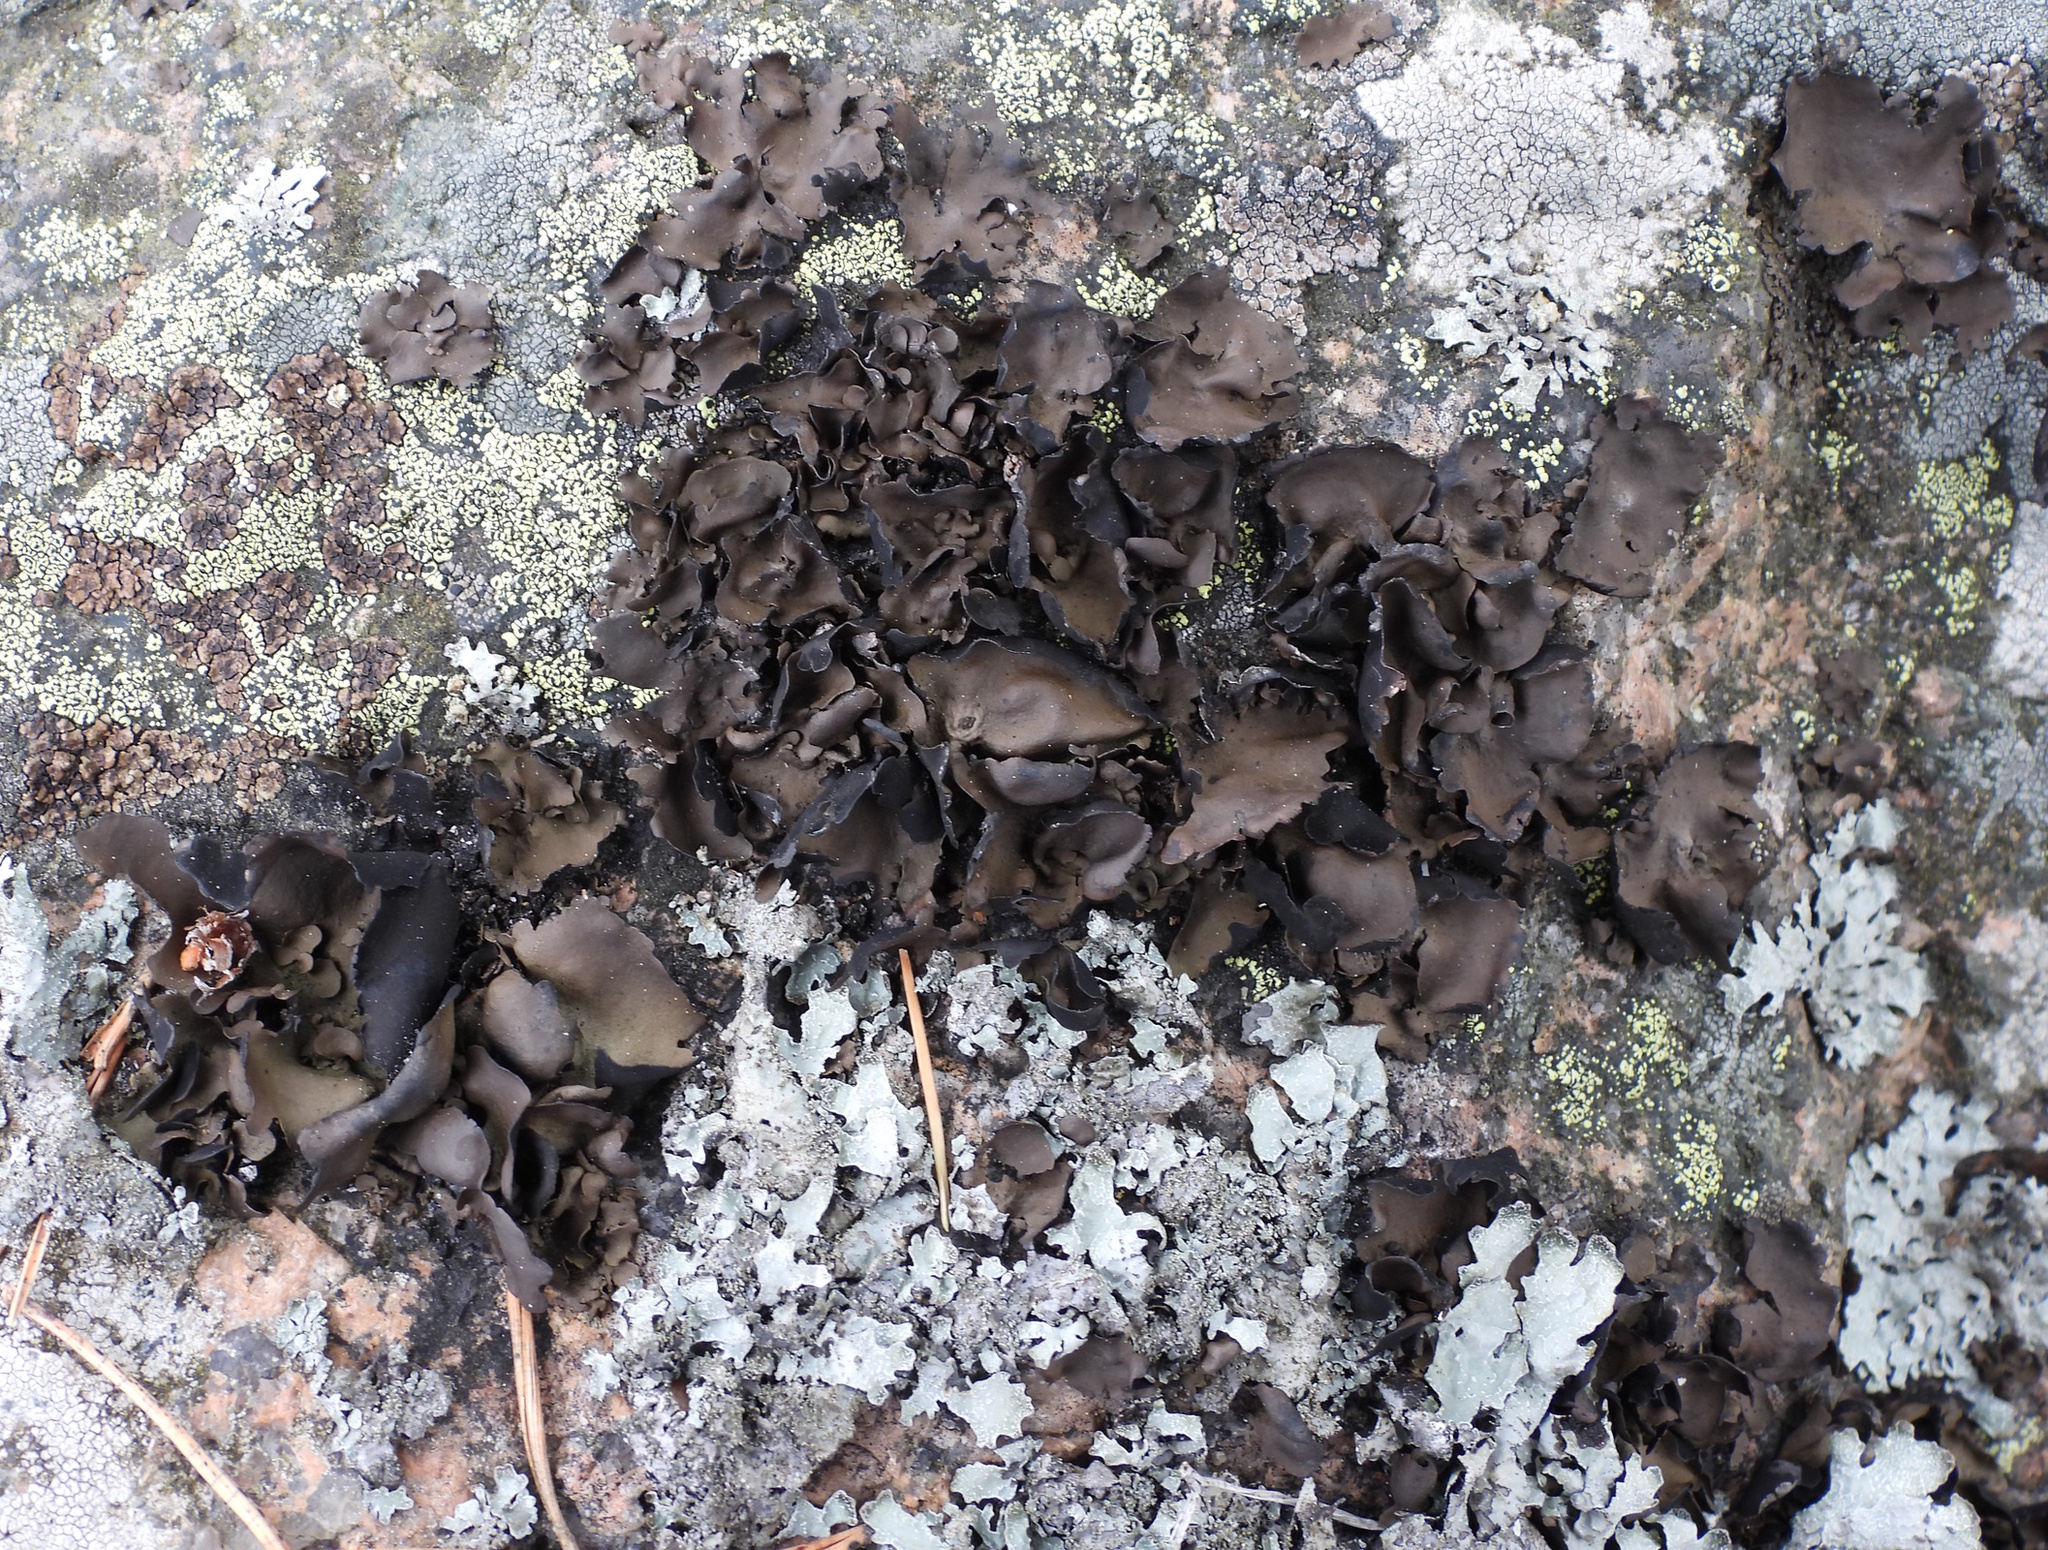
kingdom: Fungi
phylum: Ascomycota
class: Lecanoromycetes
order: Umbilicariales
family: Umbilicariaceae
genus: Umbilicaria
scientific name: Umbilicaria polyphylla
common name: Petalled rocktripe lichen
